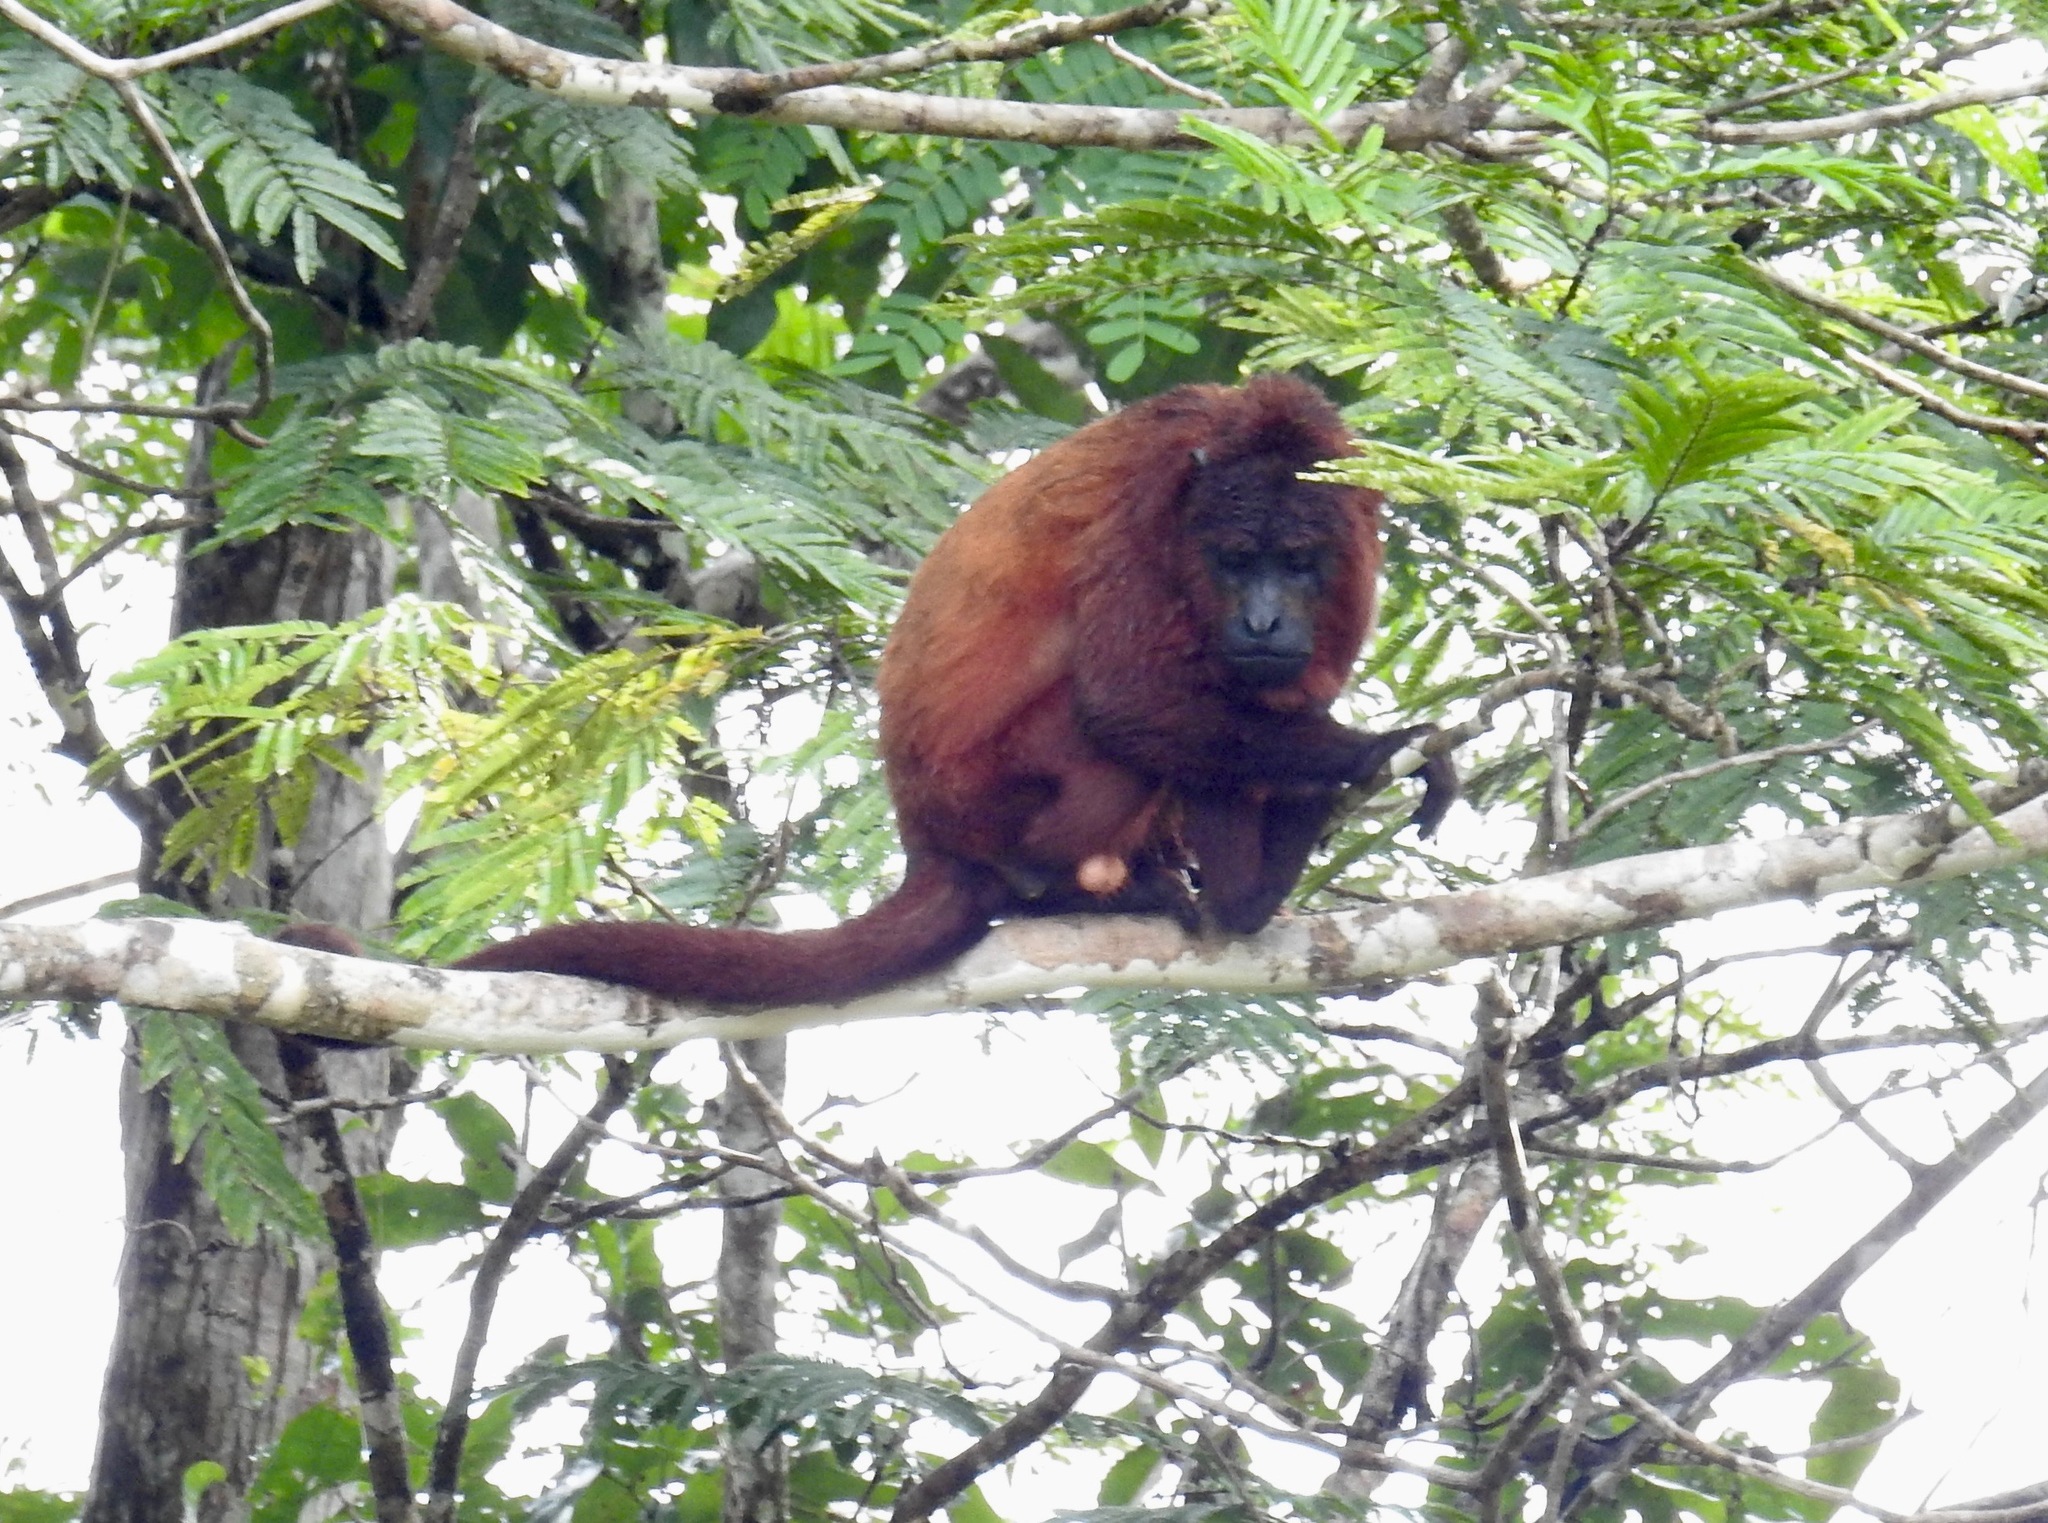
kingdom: Animalia
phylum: Chordata
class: Mammalia
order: Primates
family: Atelidae
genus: Alouatta
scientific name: Alouatta macconnelli
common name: Guyanan red howler
